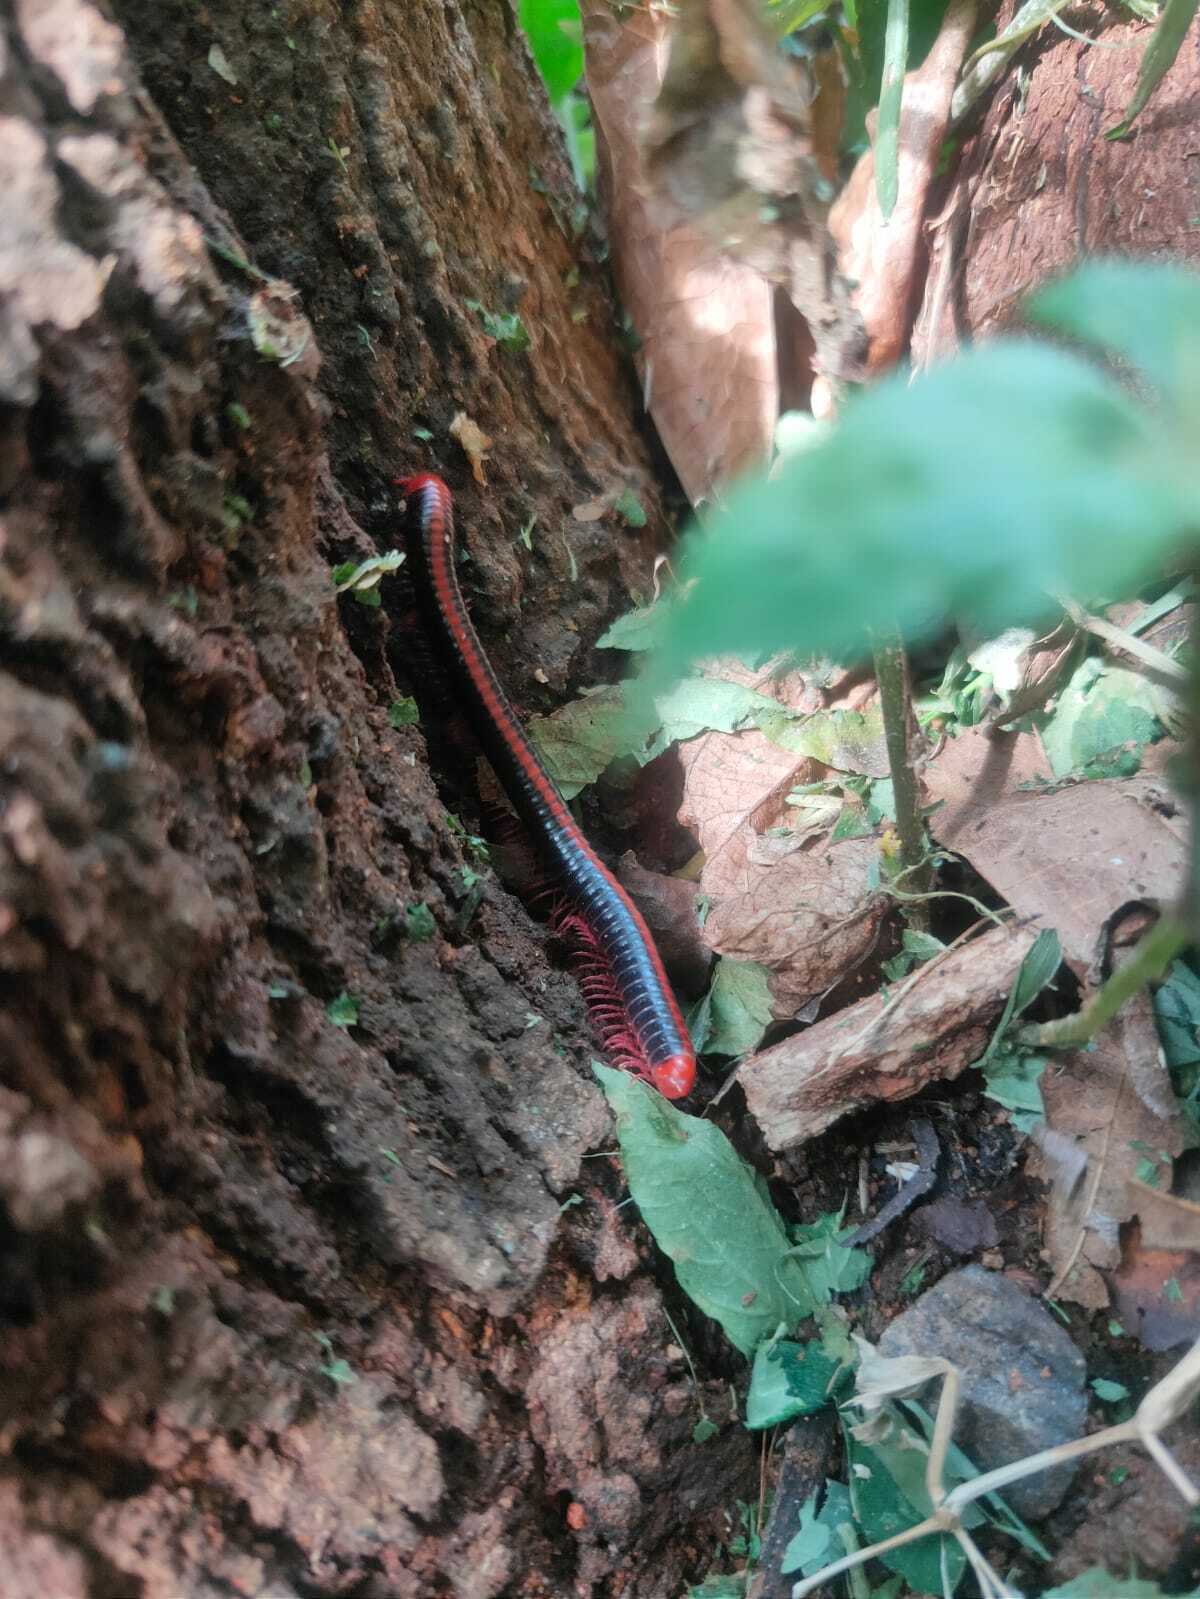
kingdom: Animalia
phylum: Arthropoda
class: Diplopoda
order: Spirobolida
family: Pachybolidae
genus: Xenobolus
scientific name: Xenobolus carnifex
